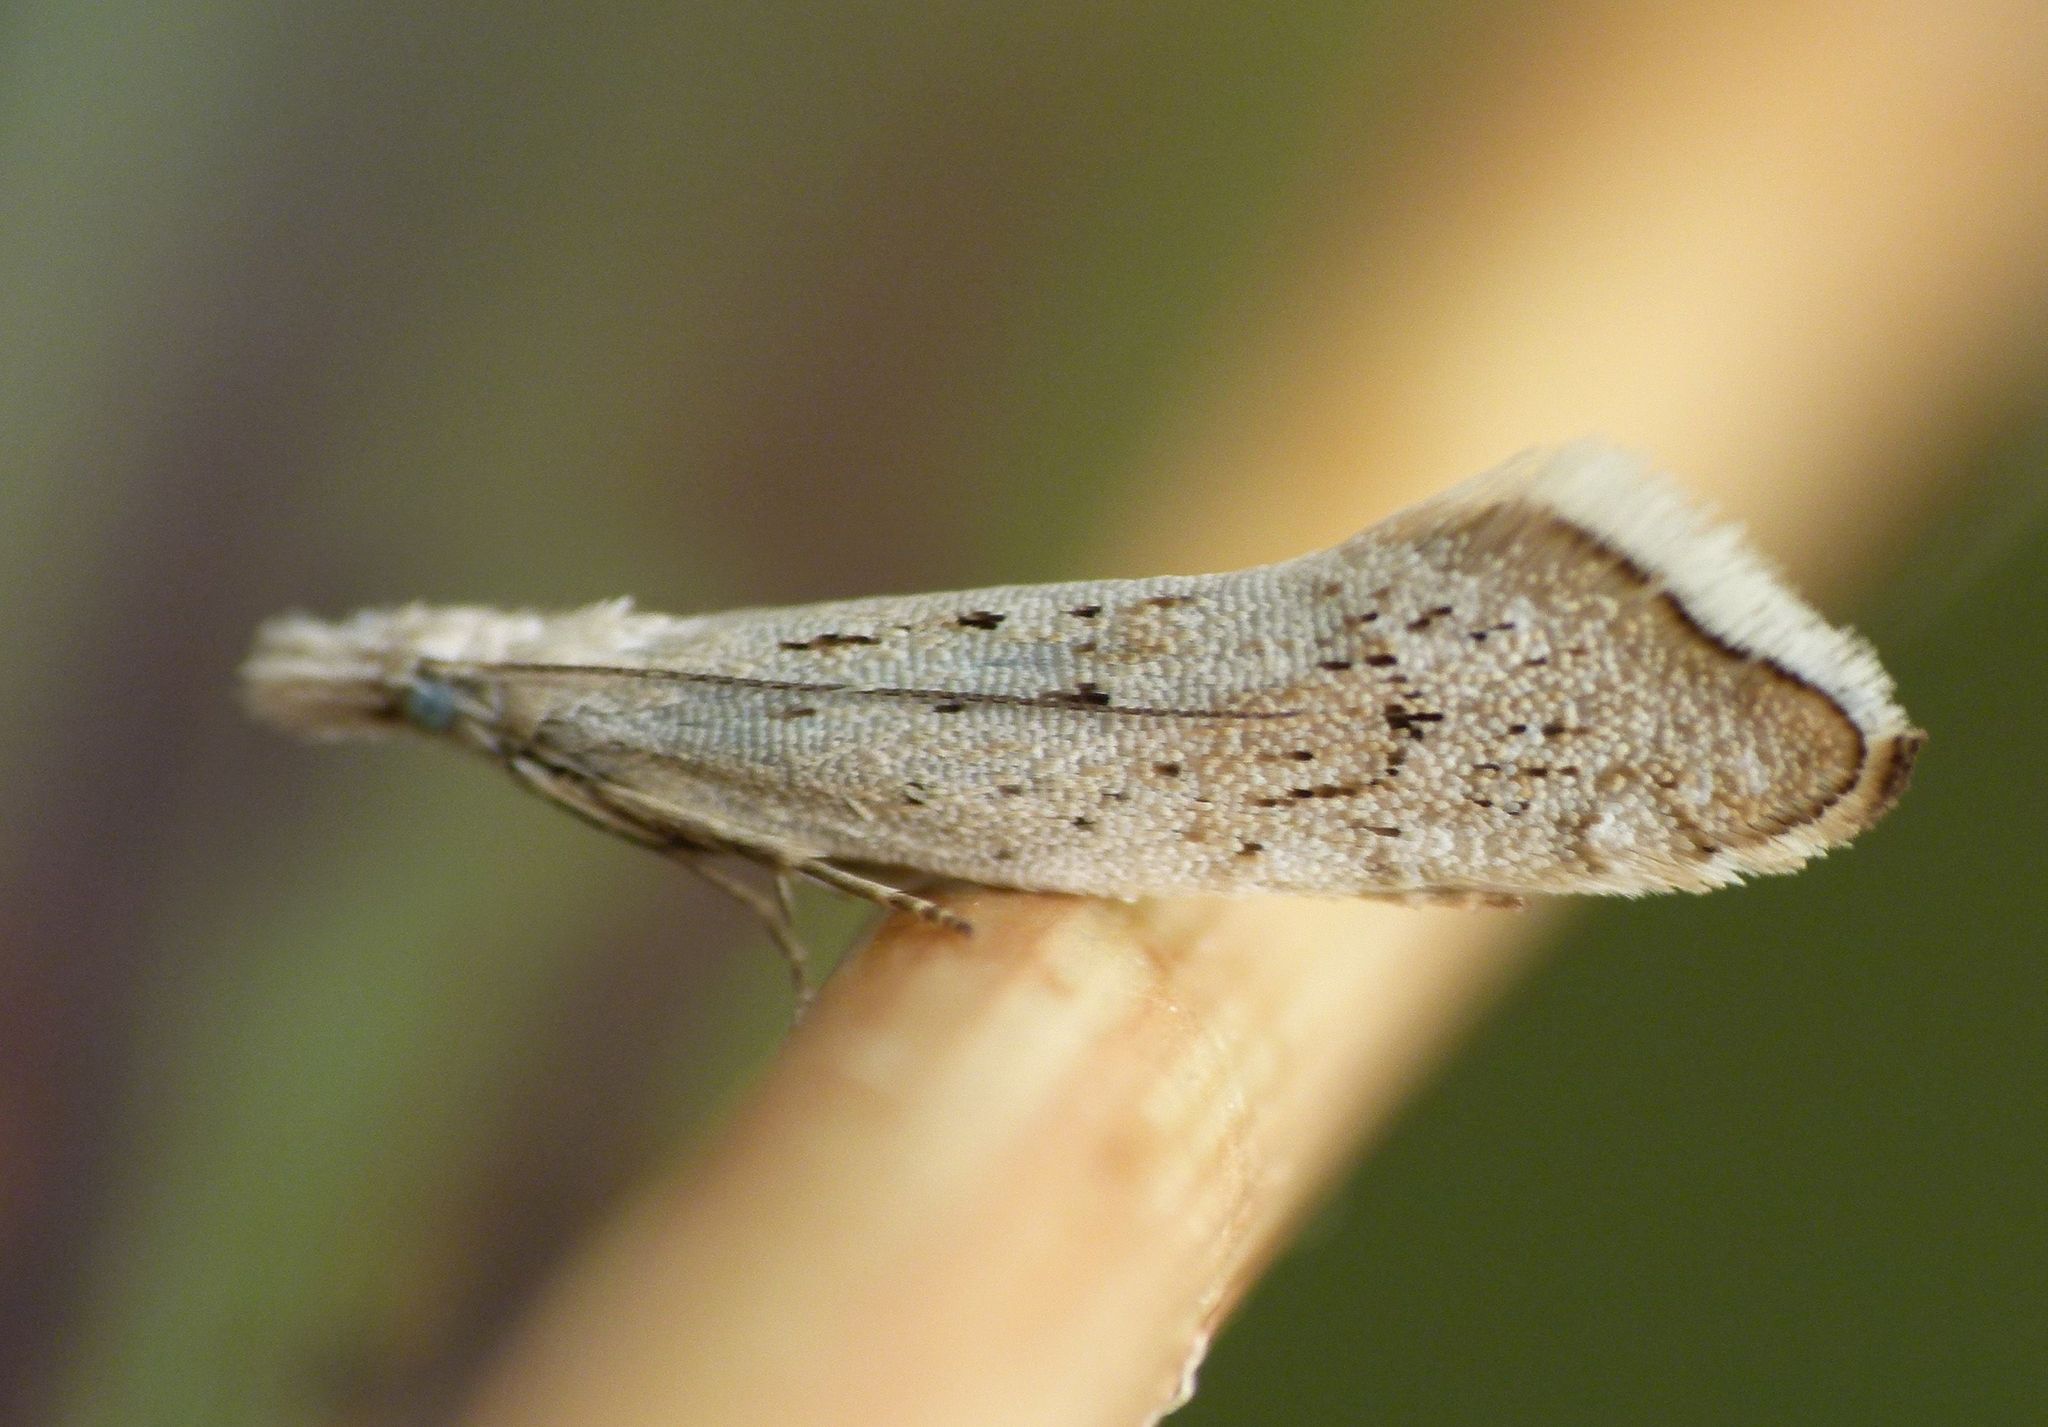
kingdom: Animalia
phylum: Arthropoda
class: Insecta
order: Lepidoptera
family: Glyphipterigidae
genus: Glyphipterix
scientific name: Glyphipterix achlyoessa
